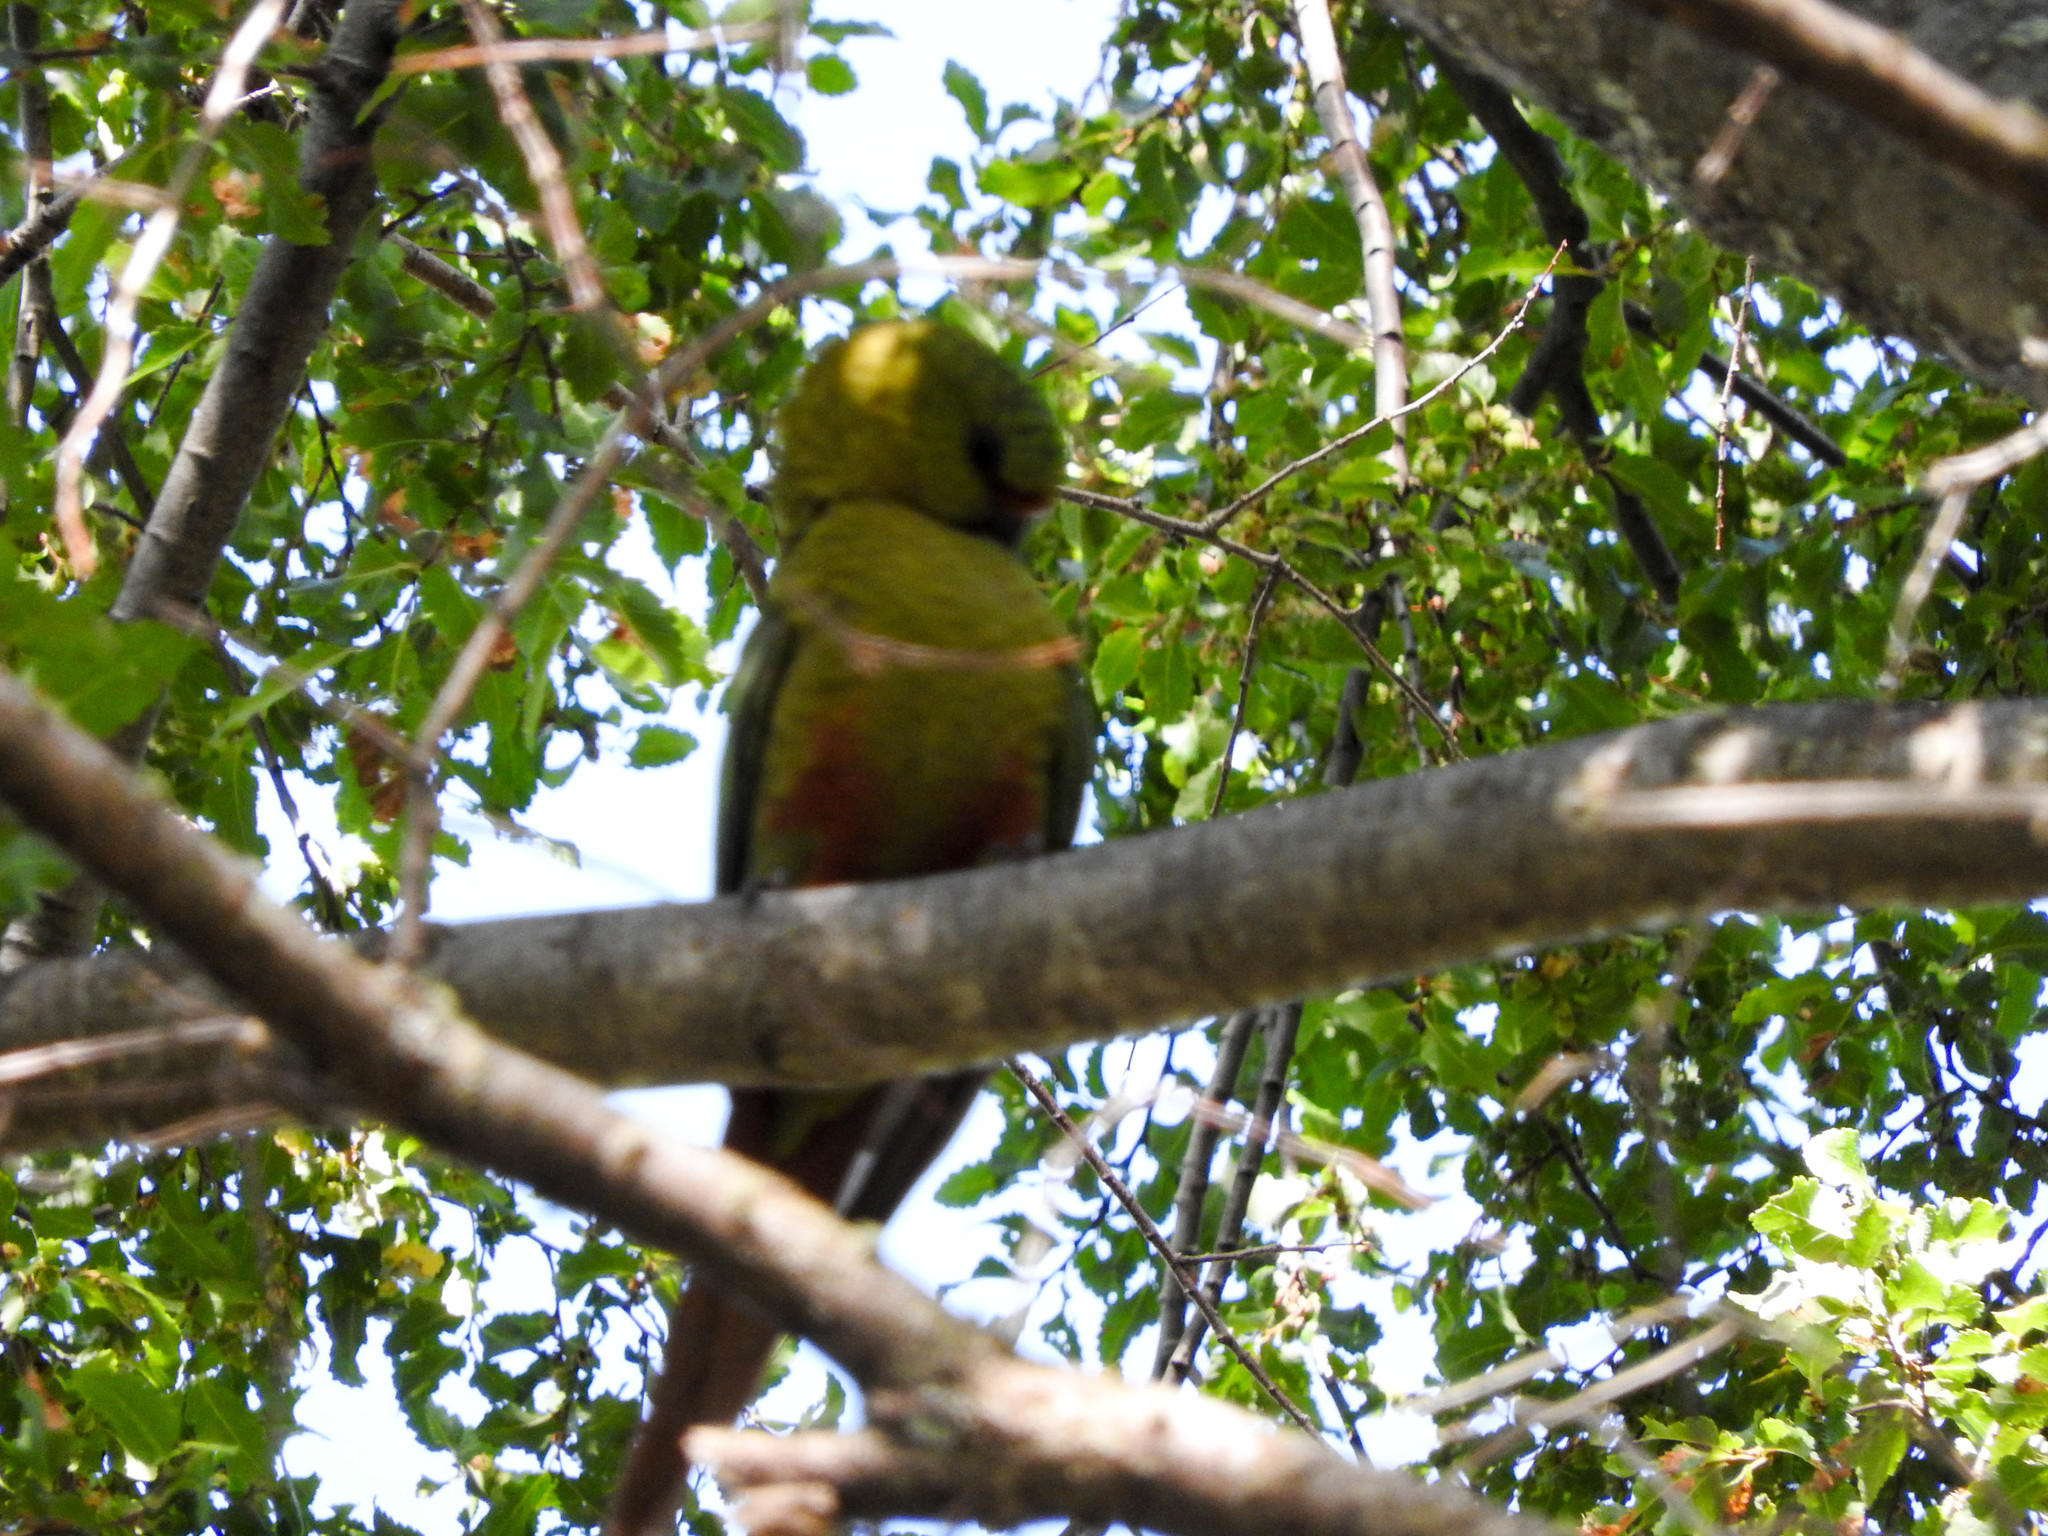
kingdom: Animalia
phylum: Chordata
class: Aves
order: Psittaciformes
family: Psittacidae
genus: Enicognathus
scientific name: Enicognathus ferrugineus
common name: Austral parakeet
